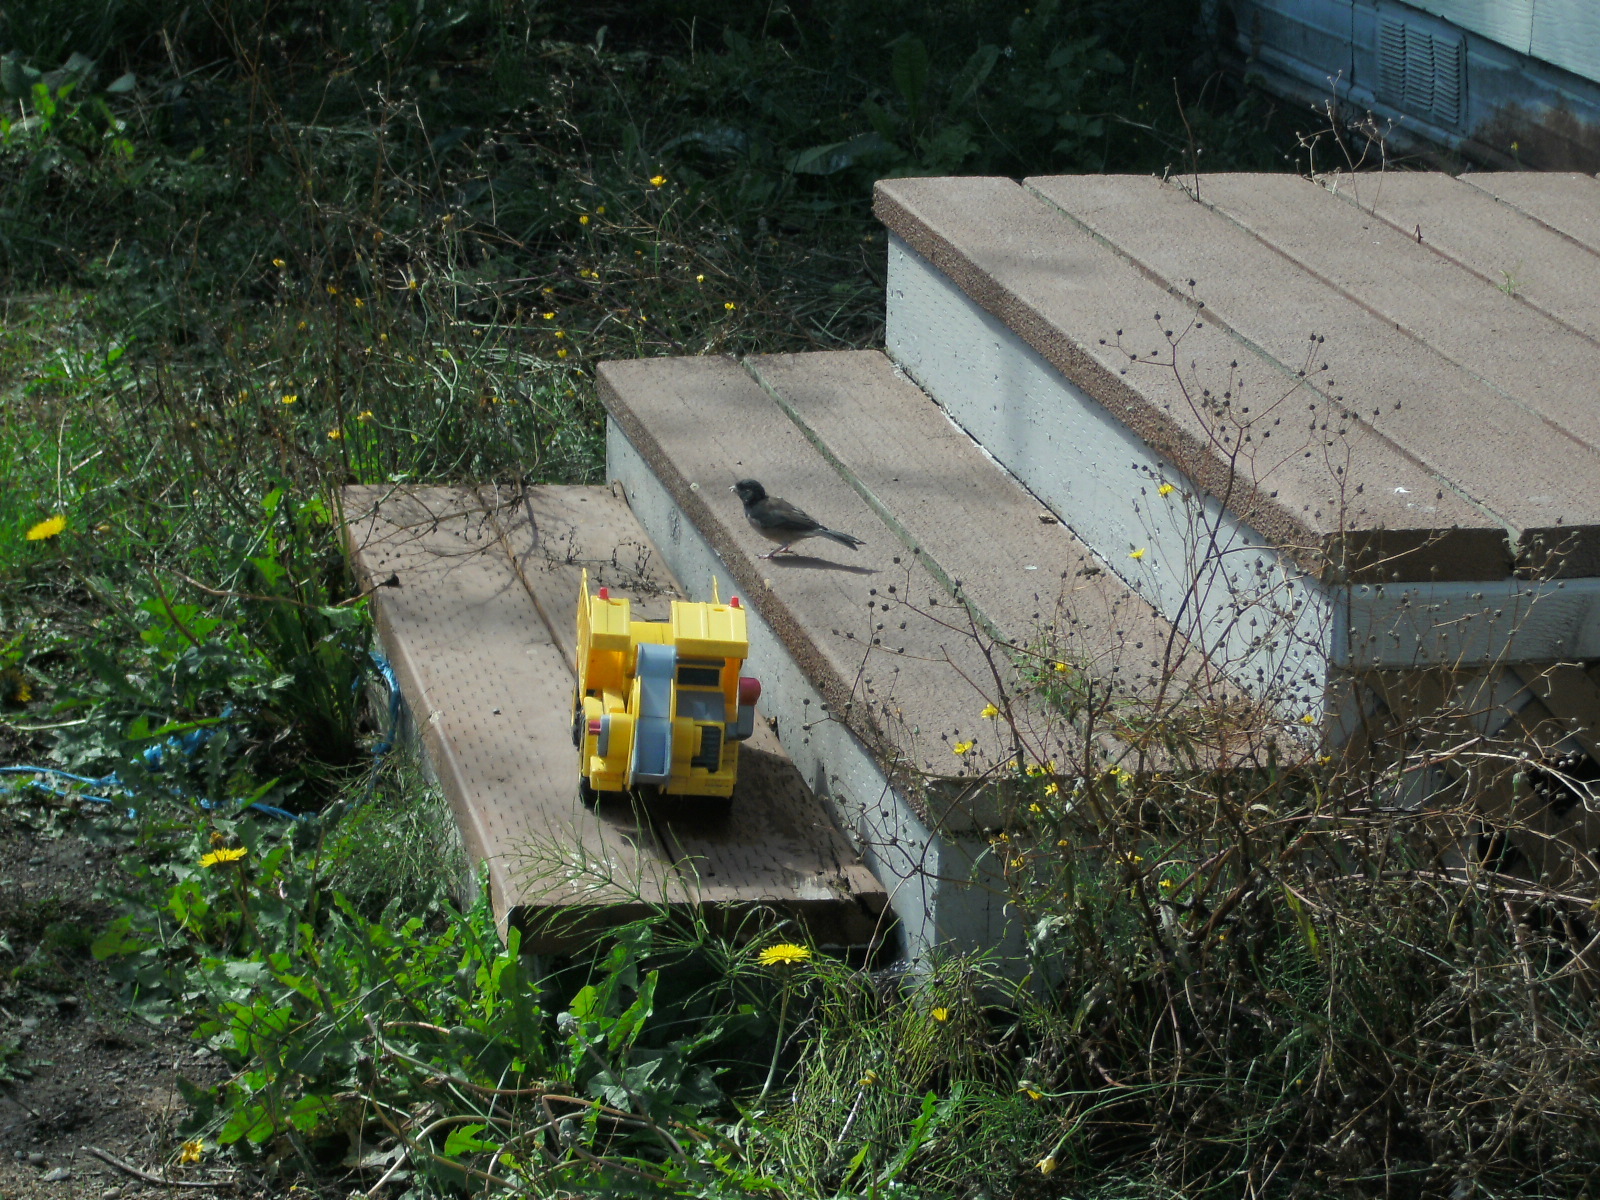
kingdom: Animalia
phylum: Chordata
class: Aves
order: Passeriformes
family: Passerellidae
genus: Junco
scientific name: Junco hyemalis
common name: Dark-eyed junco
